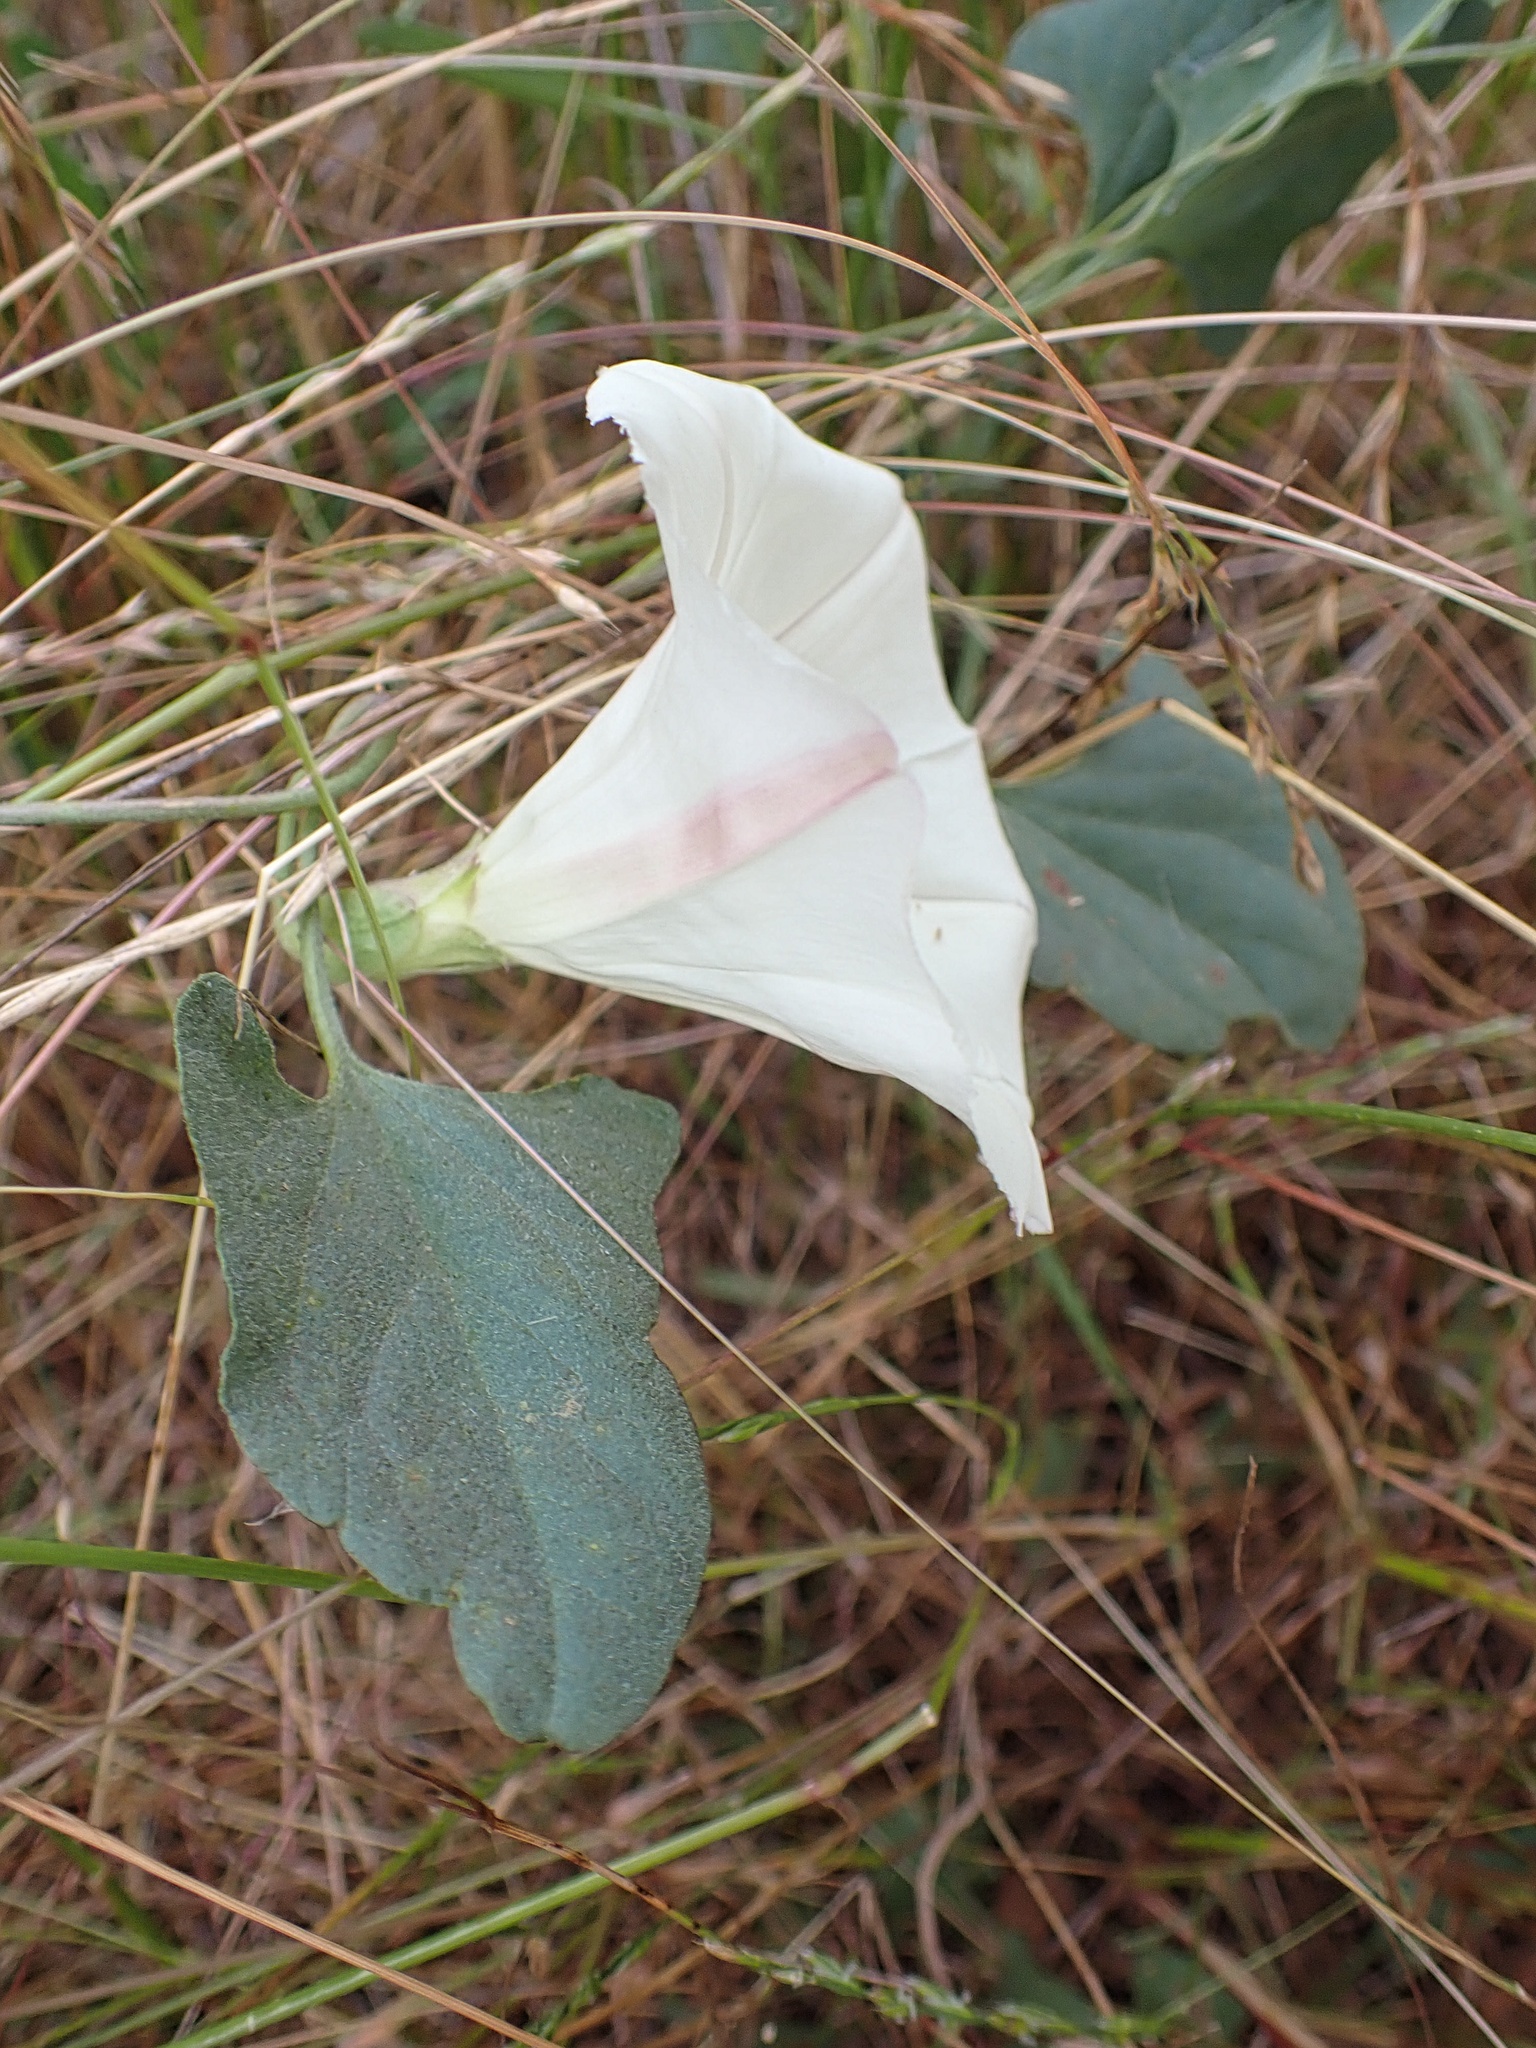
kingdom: Plantae
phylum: Tracheophyta
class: Magnoliopsida
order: Solanales
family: Convolvulaceae
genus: Calystegia
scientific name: Calystegia subacaulis
